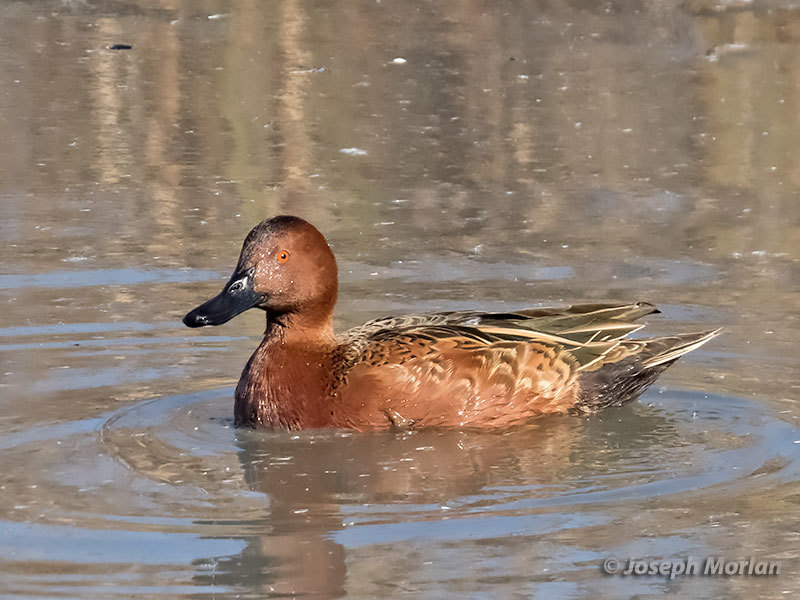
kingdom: Animalia
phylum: Chordata
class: Aves
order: Anseriformes
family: Anatidae
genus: Spatula
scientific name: Spatula cyanoptera
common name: Cinnamon teal
